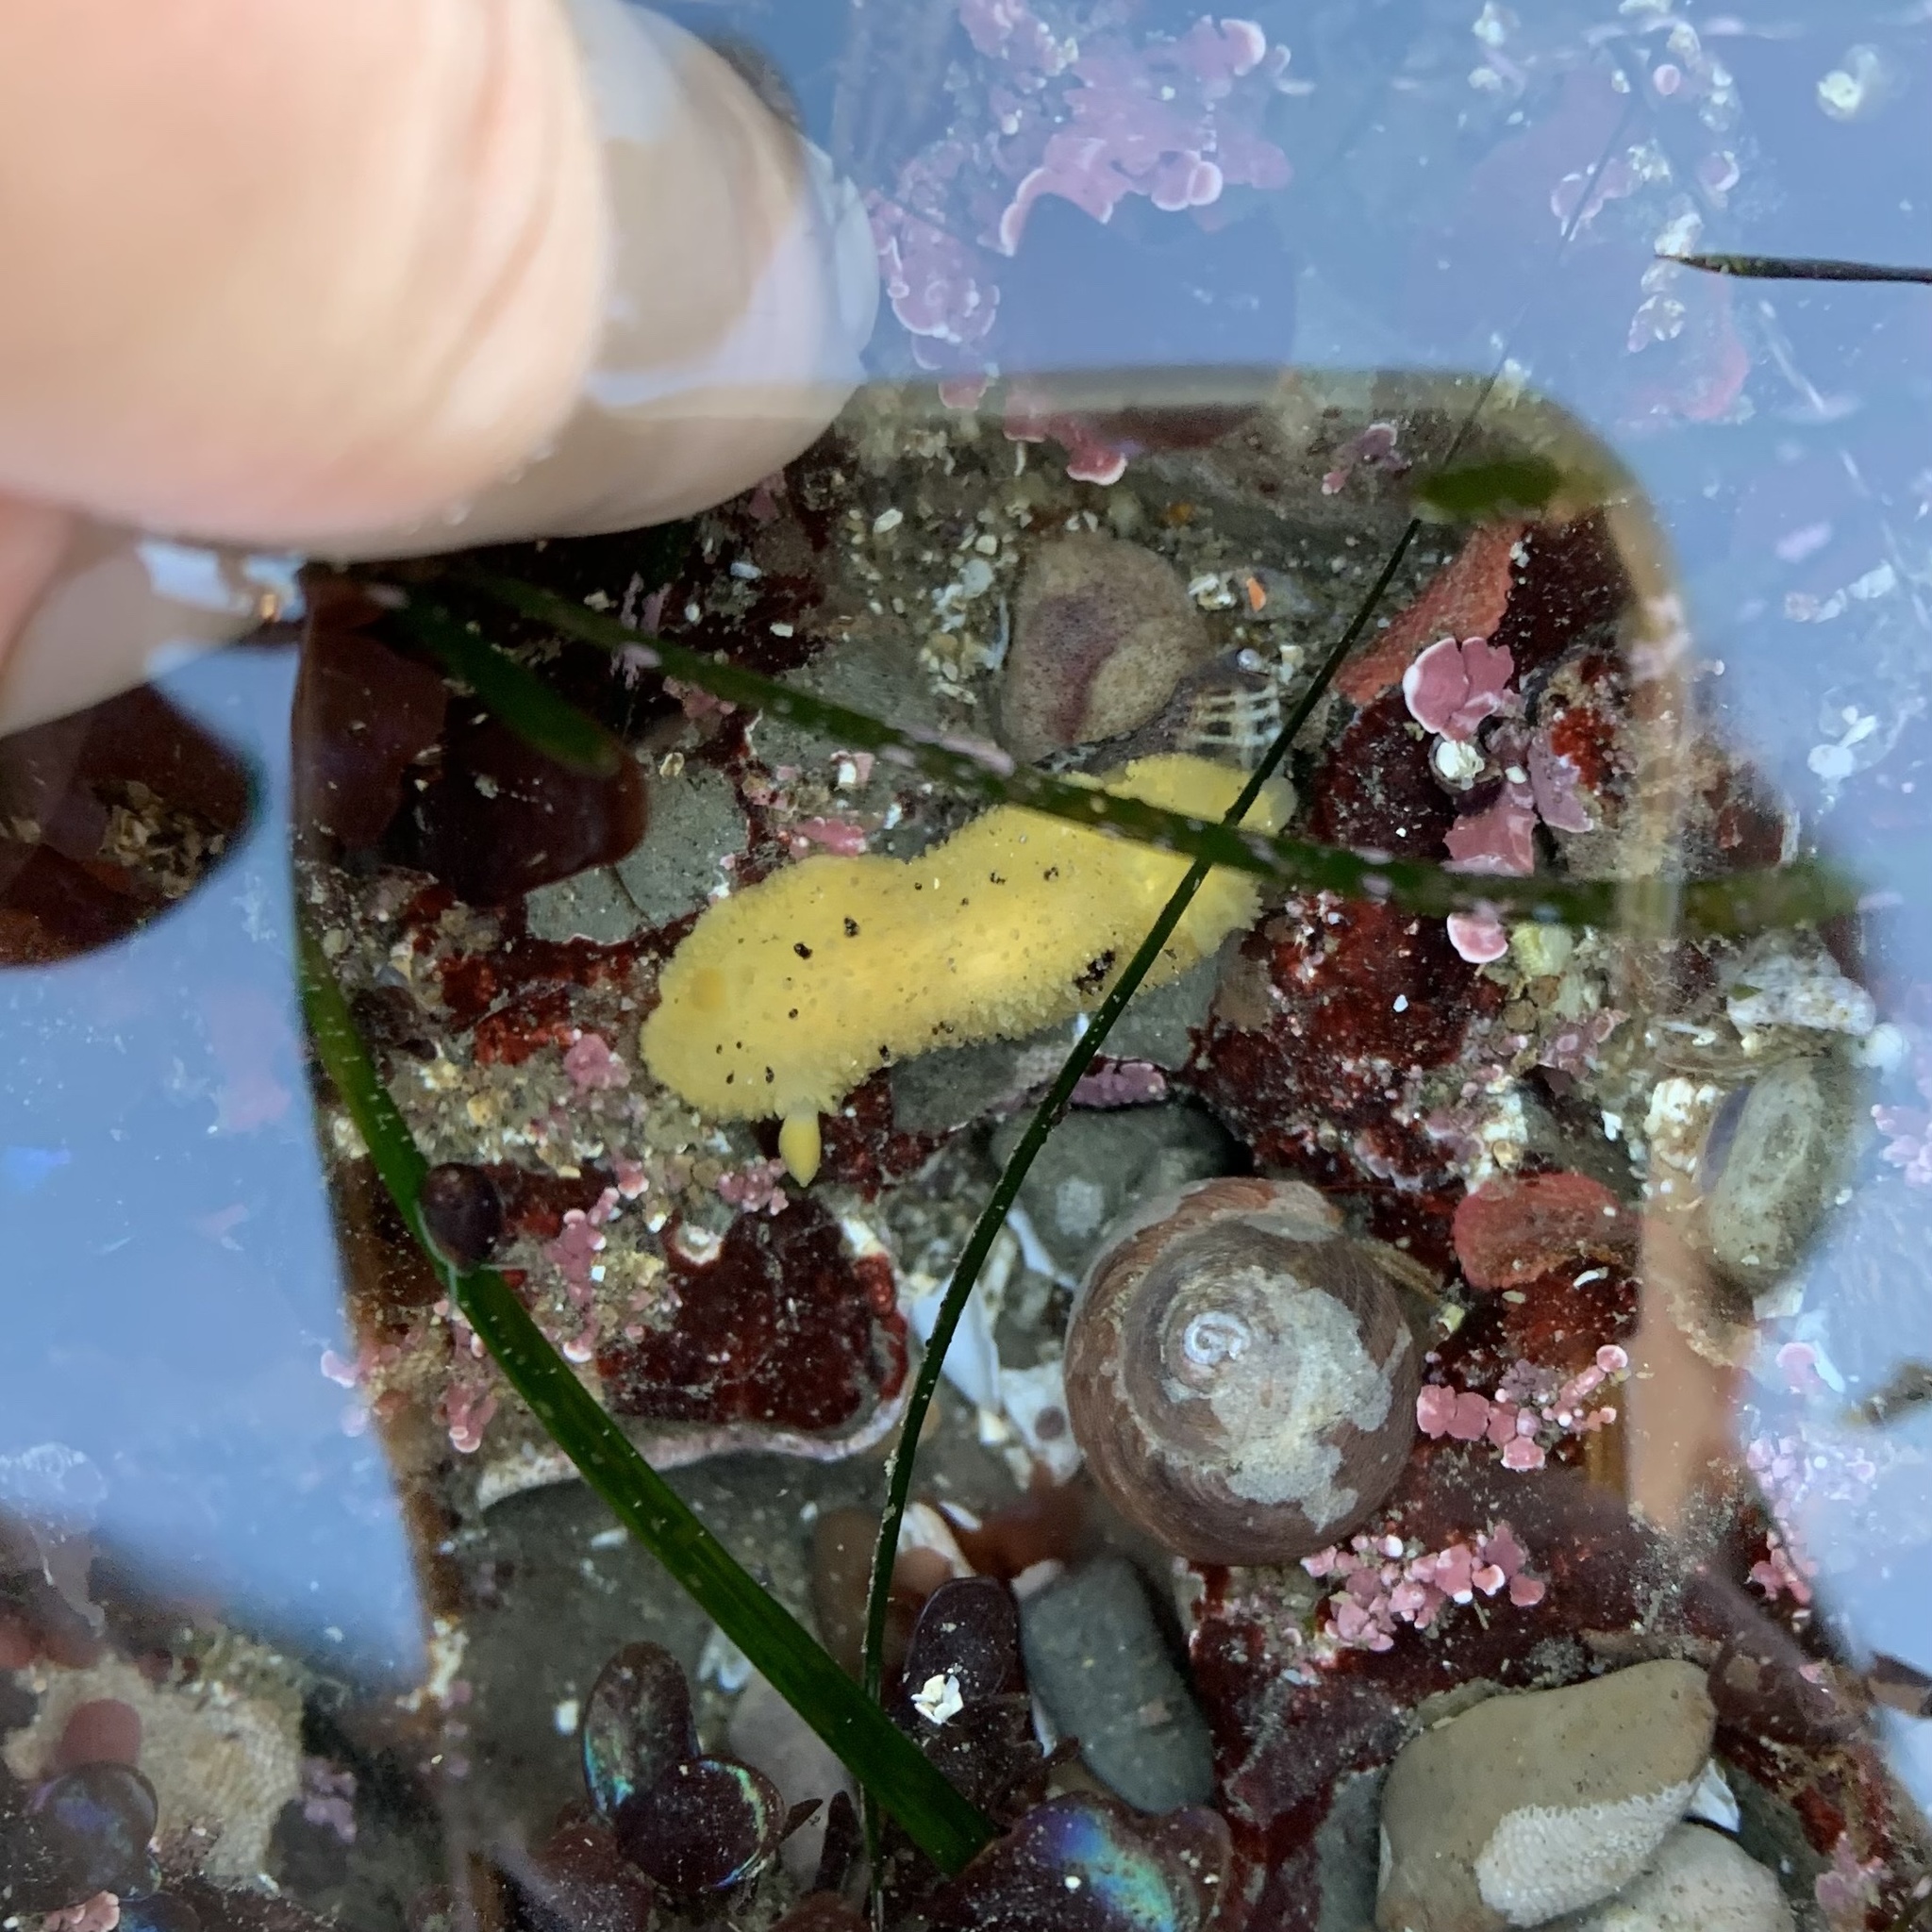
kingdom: Animalia
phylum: Mollusca
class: Gastropoda
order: Nudibranchia
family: Dorididae
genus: Doris
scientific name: Doris montereyensis
